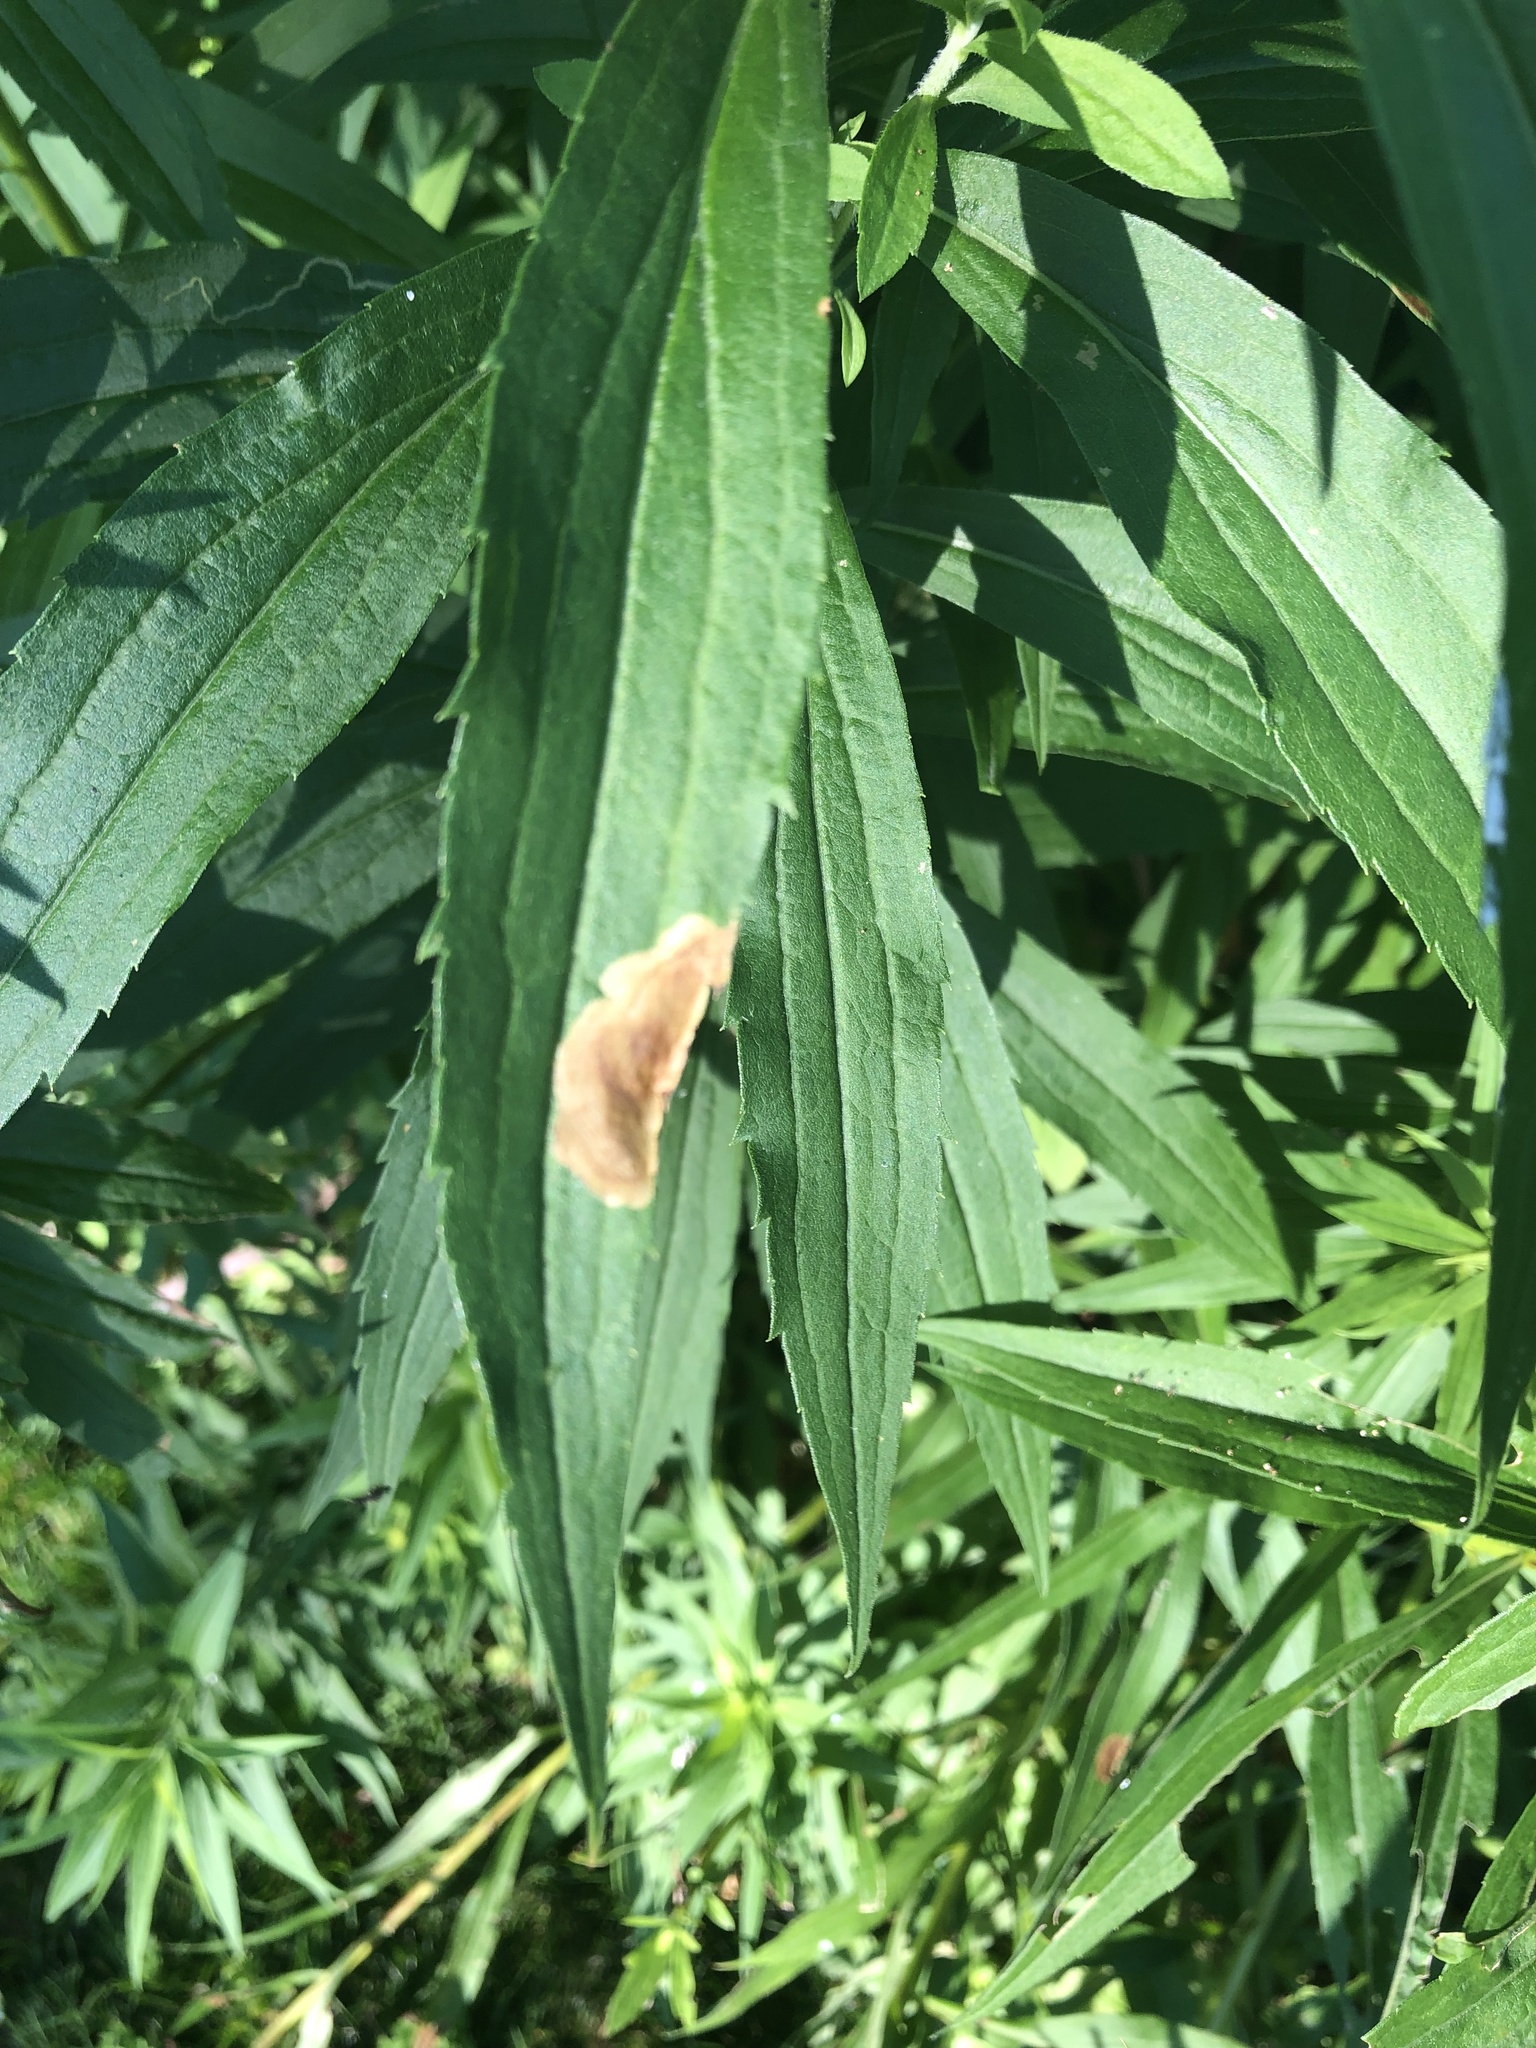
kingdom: Animalia
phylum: Arthropoda
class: Insecta
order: Diptera
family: Agromyzidae
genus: Nemorimyza
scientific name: Nemorimyza posticata
